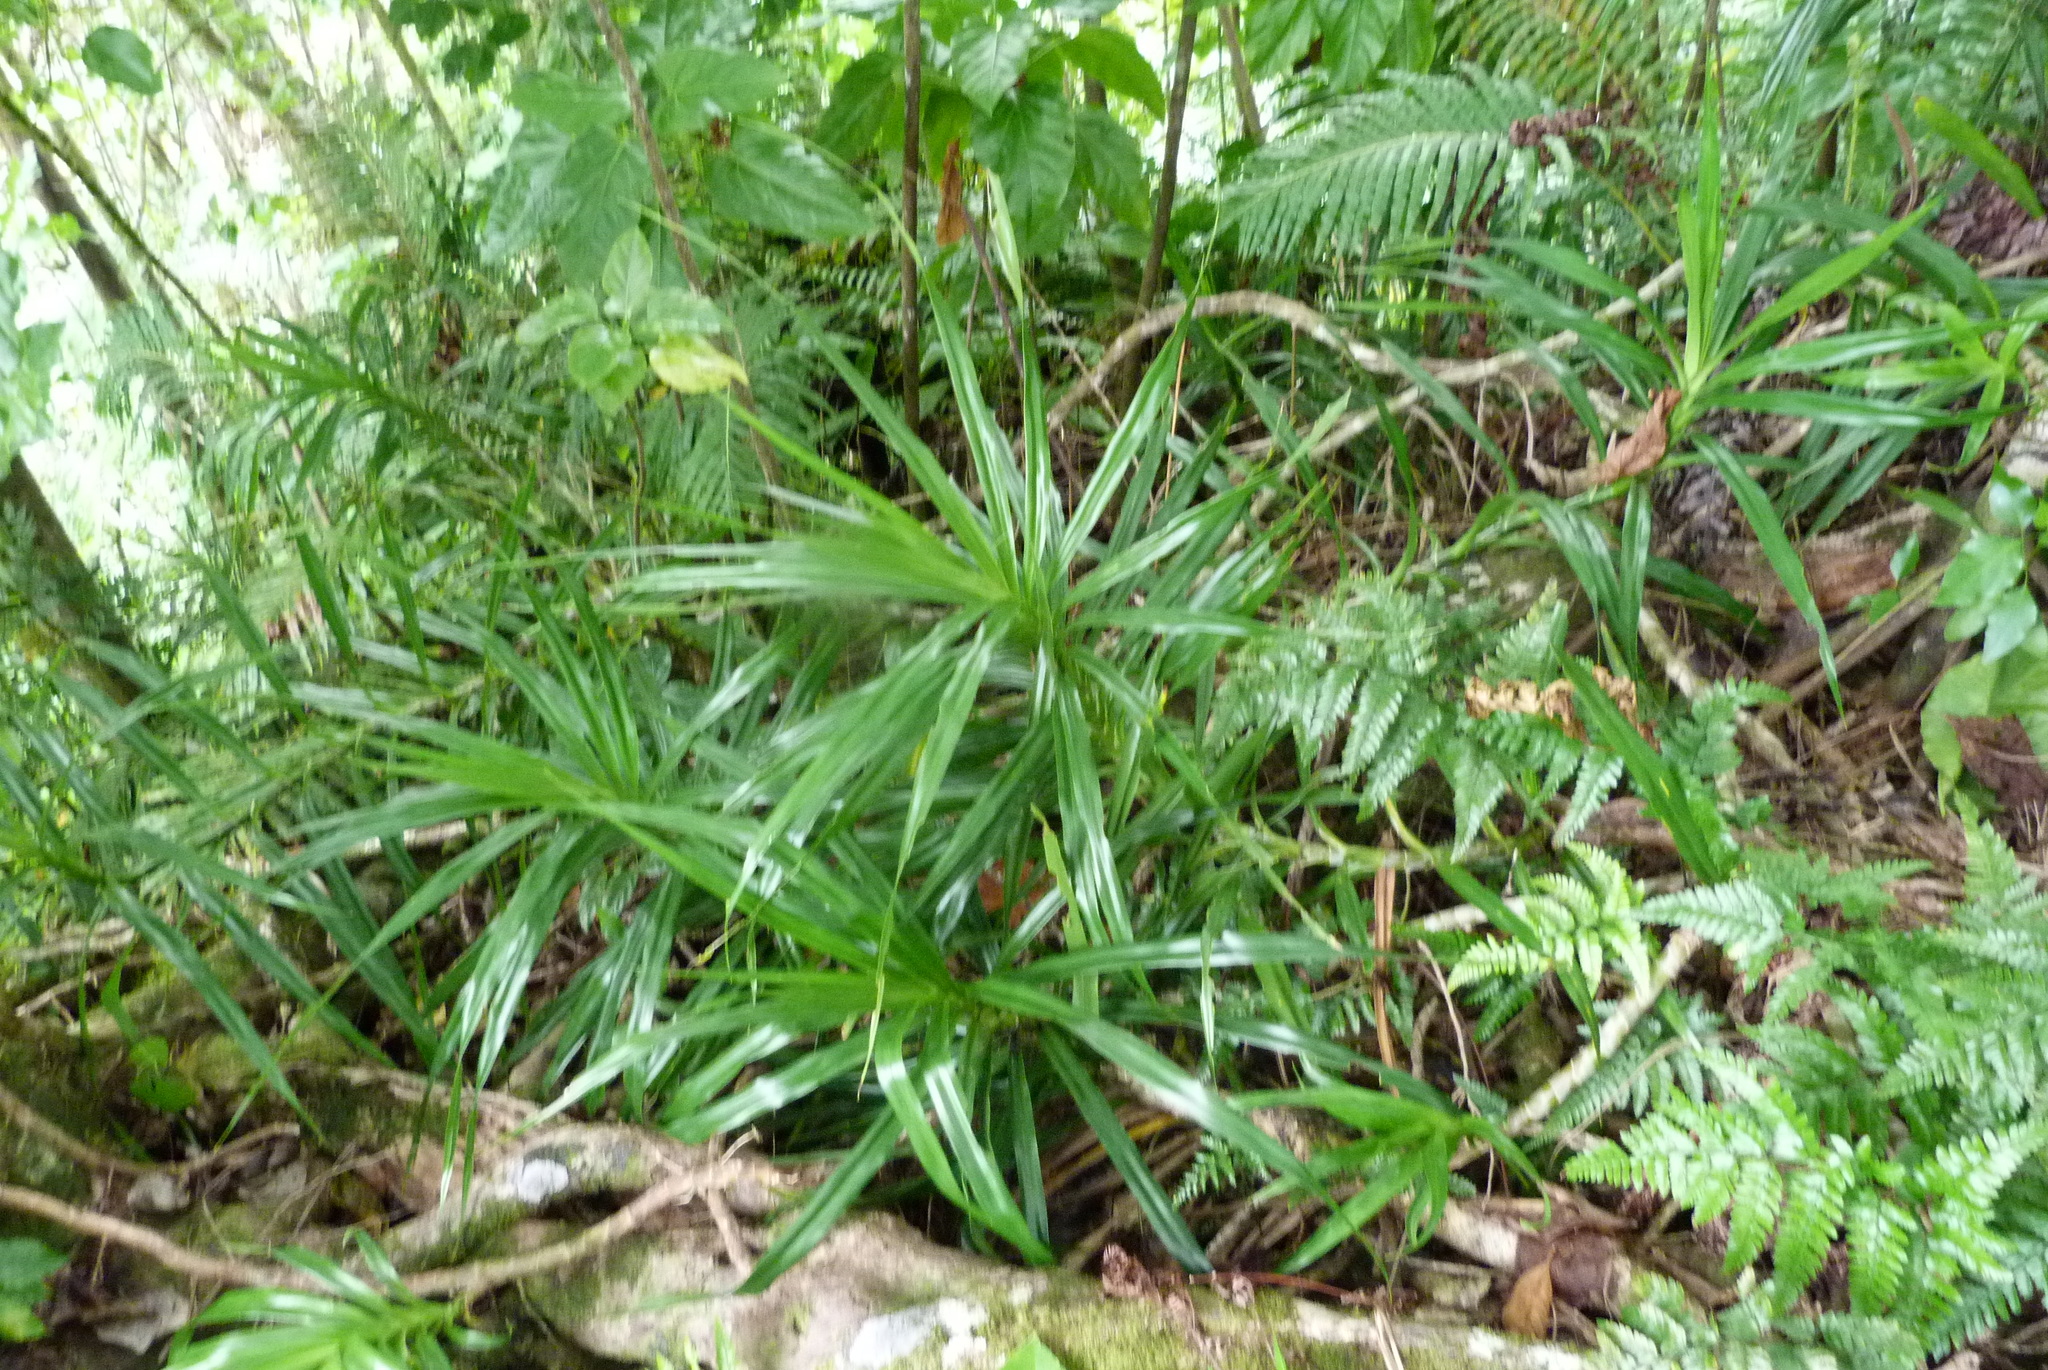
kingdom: Plantae
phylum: Tracheophyta
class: Liliopsida
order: Pandanales
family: Pandanaceae
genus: Freycinetia
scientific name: Freycinetia arborea
